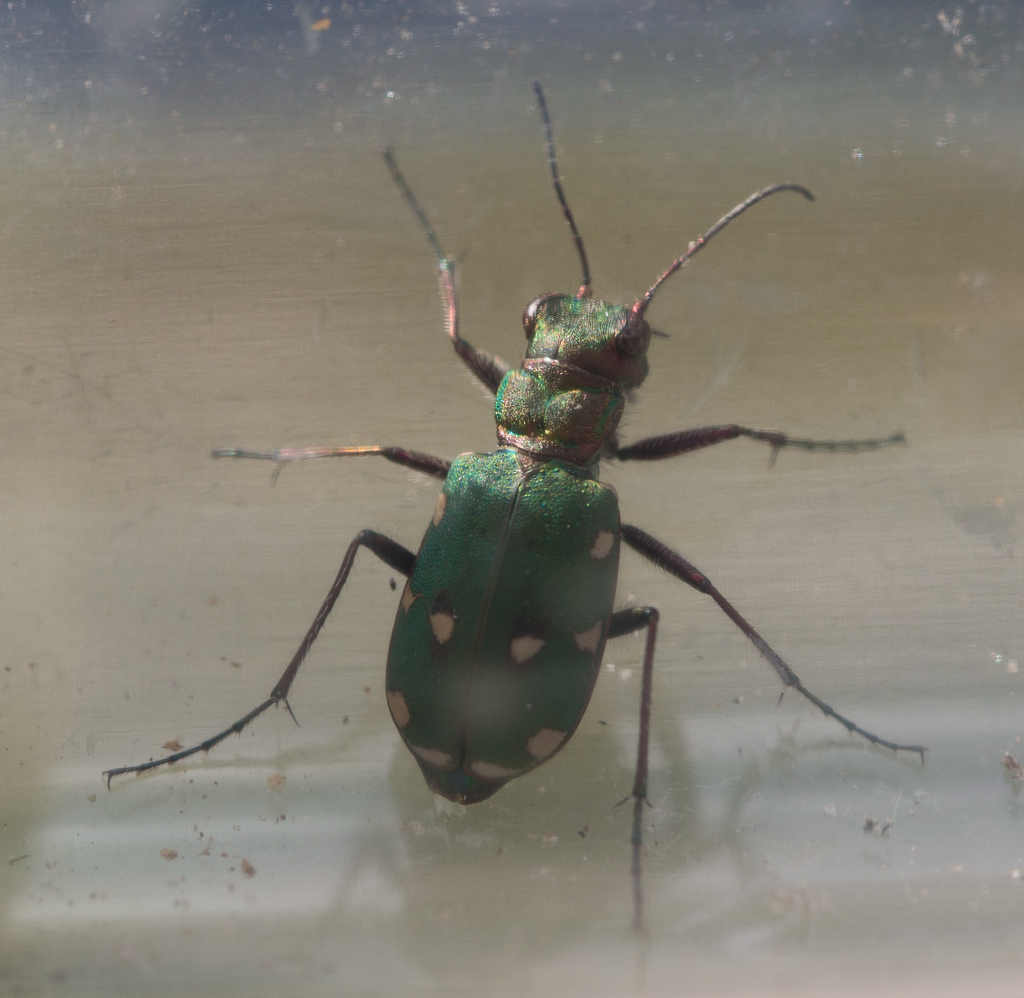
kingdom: Animalia
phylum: Arthropoda
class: Insecta
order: Coleoptera
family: Carabidae
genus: Cicindela
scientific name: Cicindela campestris
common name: Common tiger beetle
